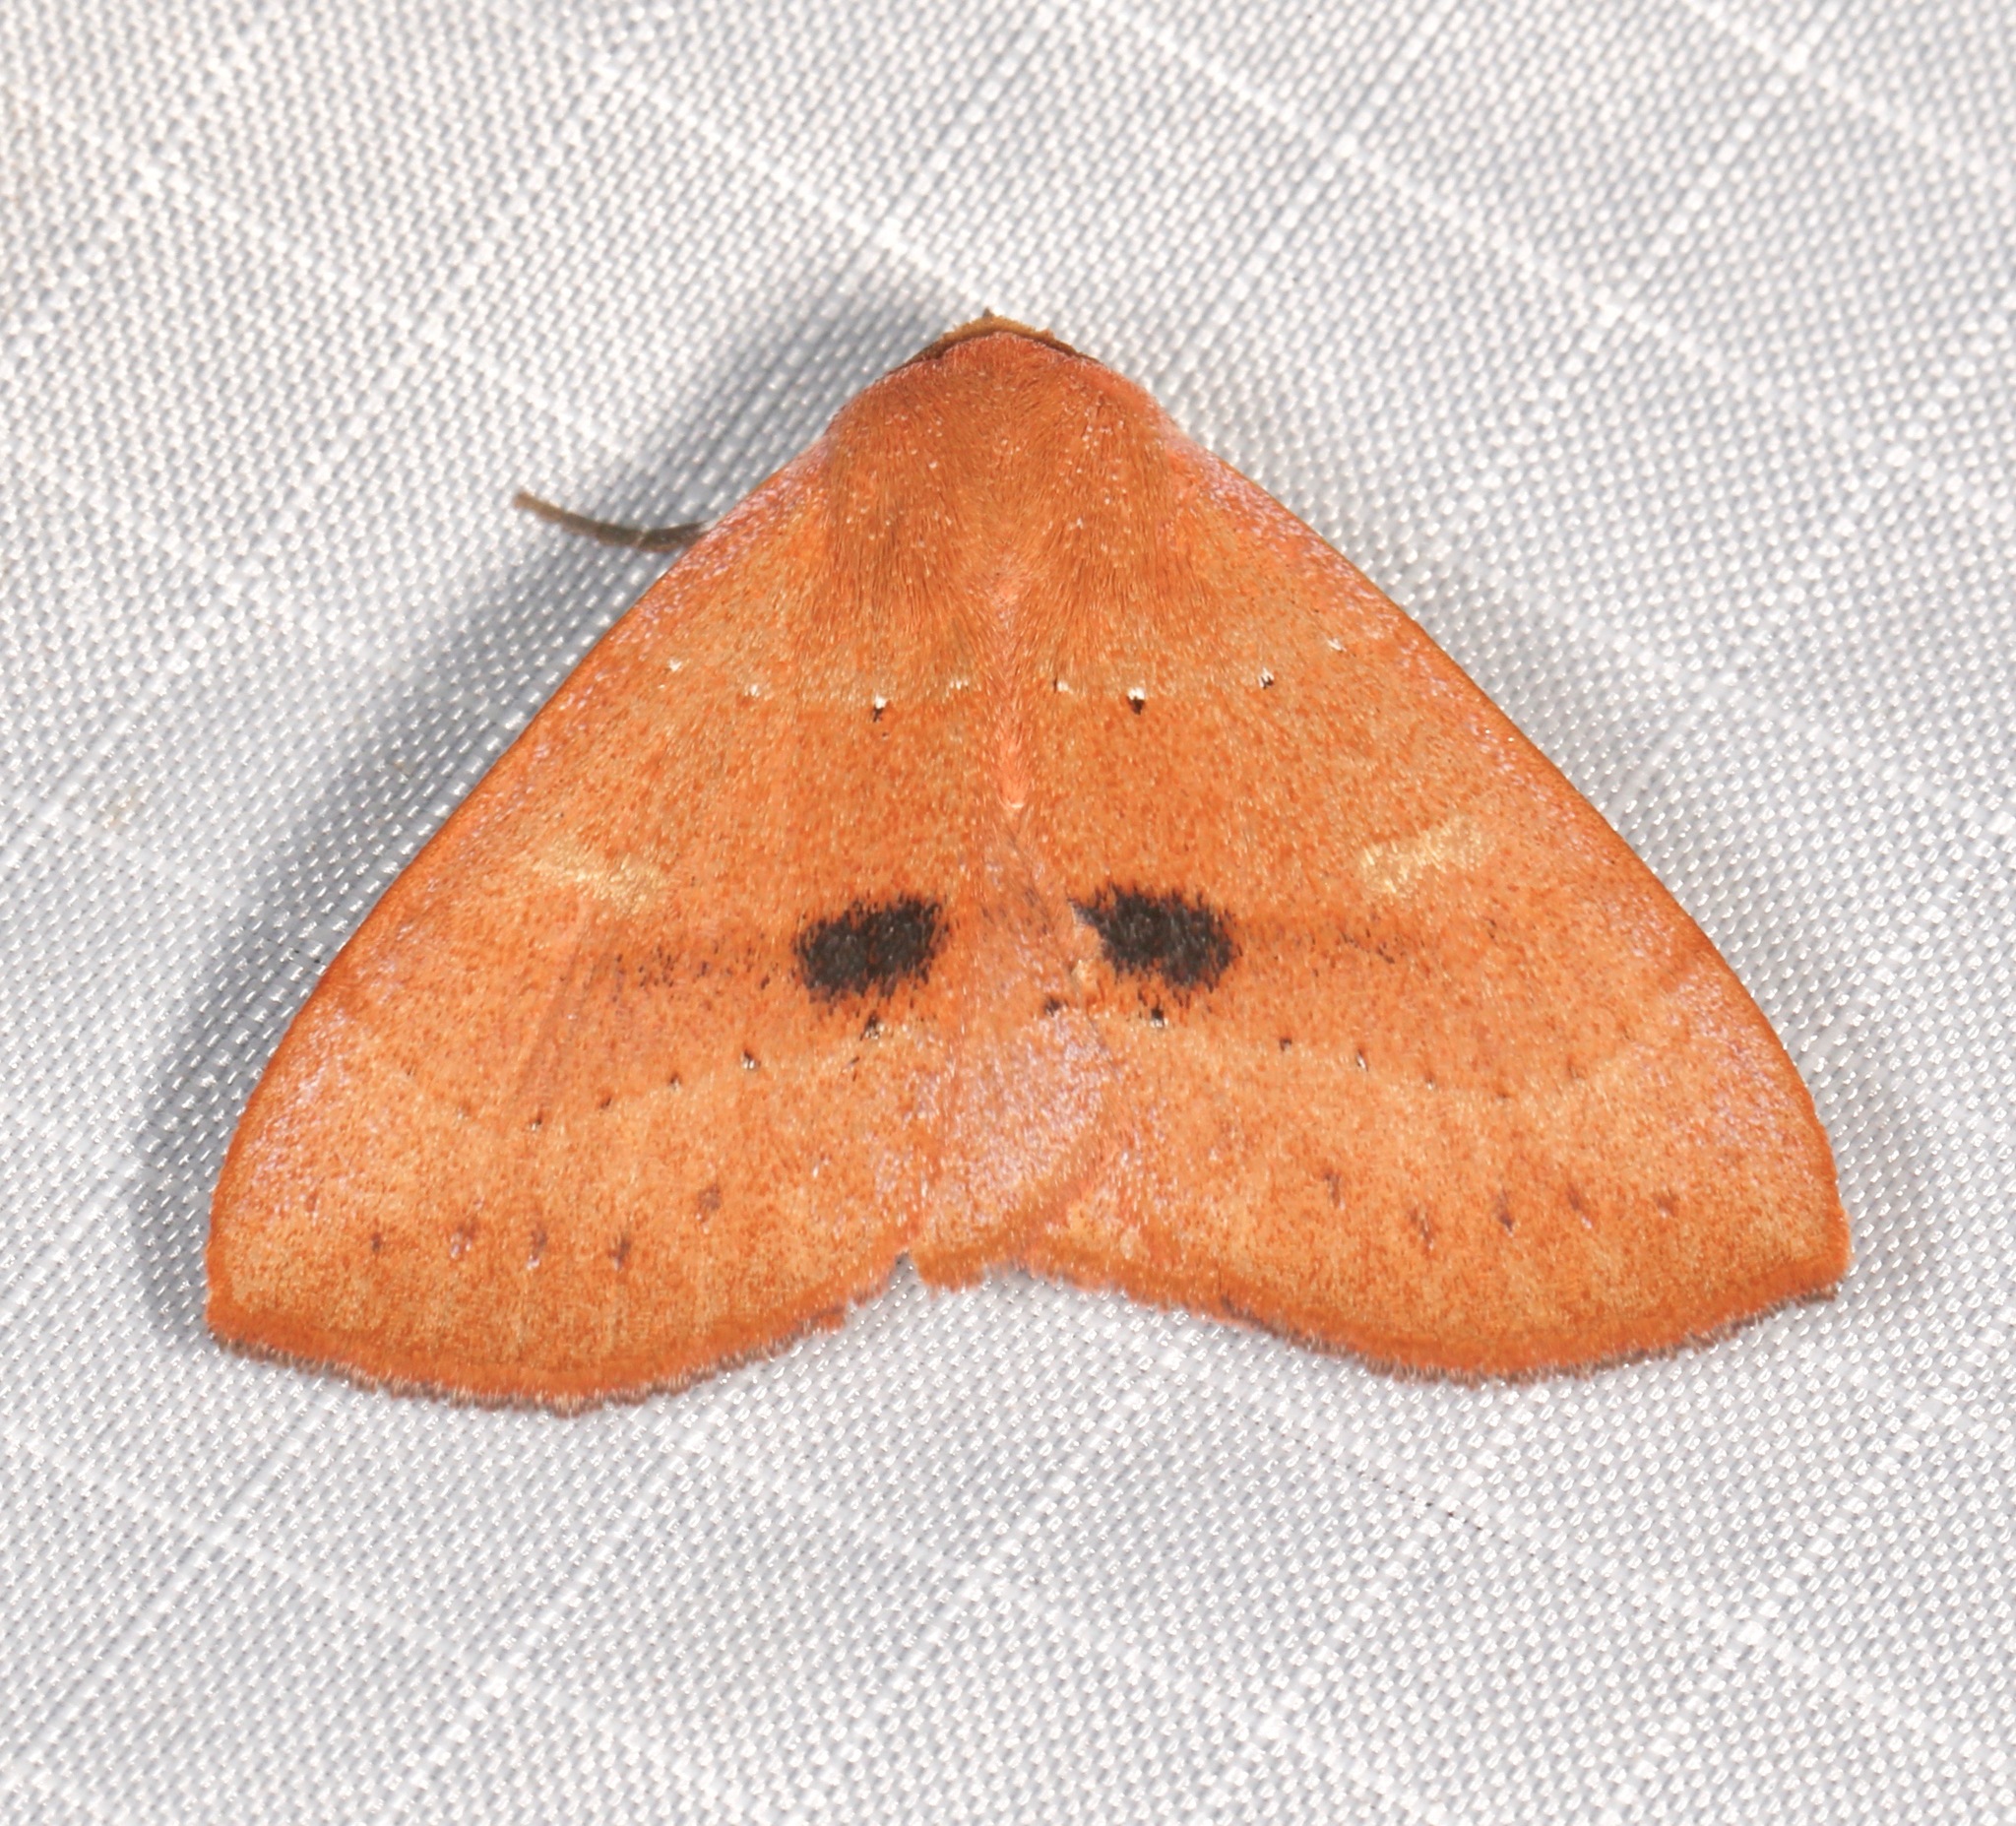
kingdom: Animalia
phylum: Arthropoda
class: Insecta
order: Lepidoptera
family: Erebidae
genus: Panopoda
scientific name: Panopoda repanda
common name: Orange panopoda
